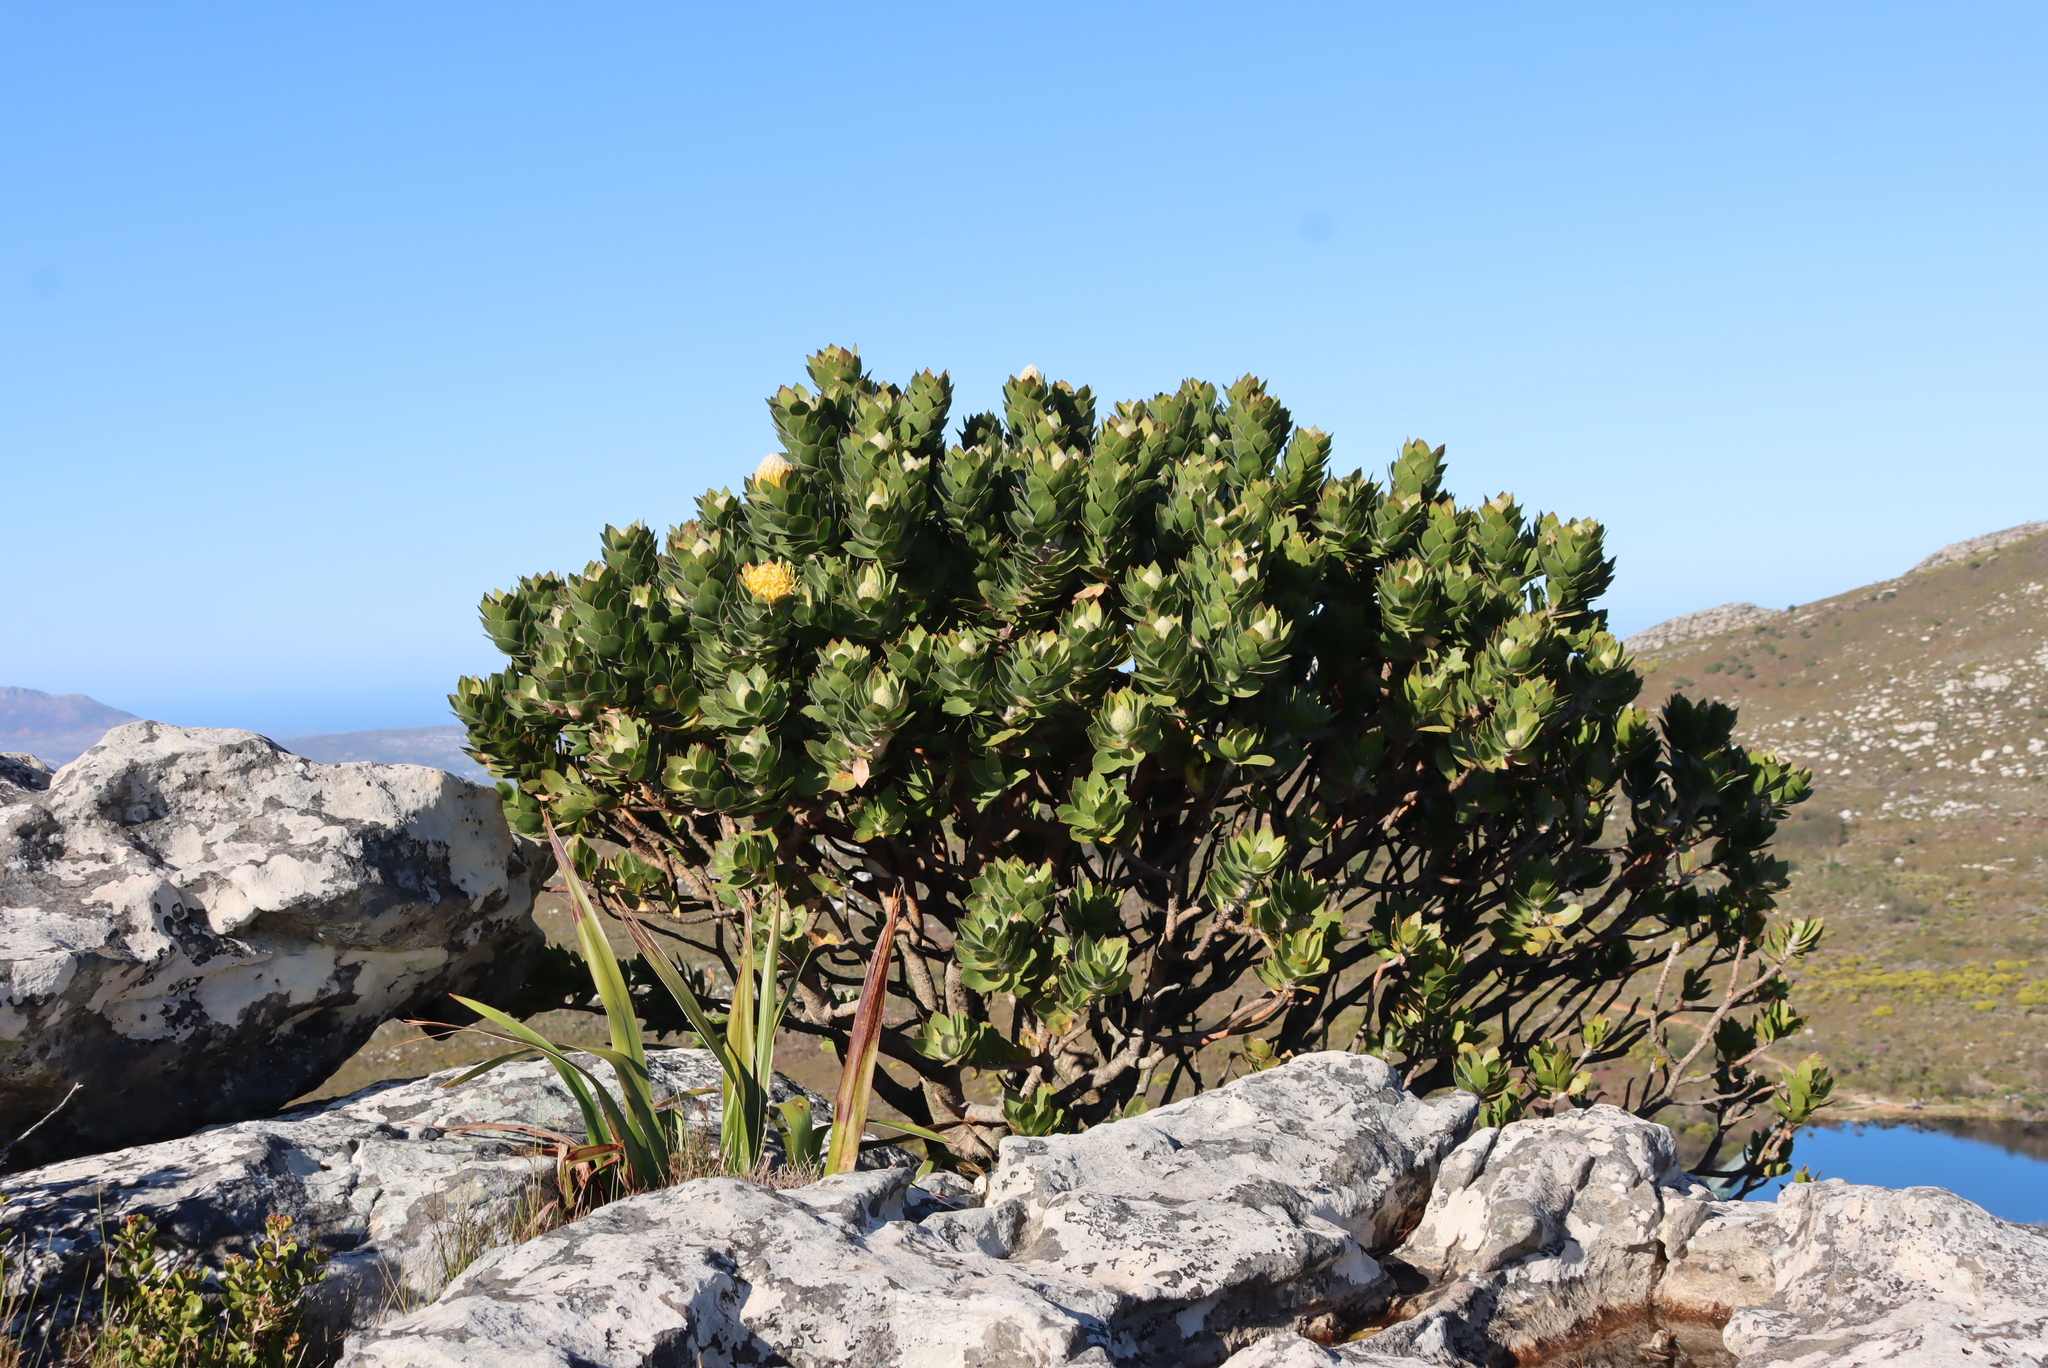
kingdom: Plantae
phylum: Tracheophyta
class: Magnoliopsida
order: Proteales
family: Proteaceae
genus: Leucospermum
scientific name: Leucospermum conocarpodendron
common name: Tree pincushion
